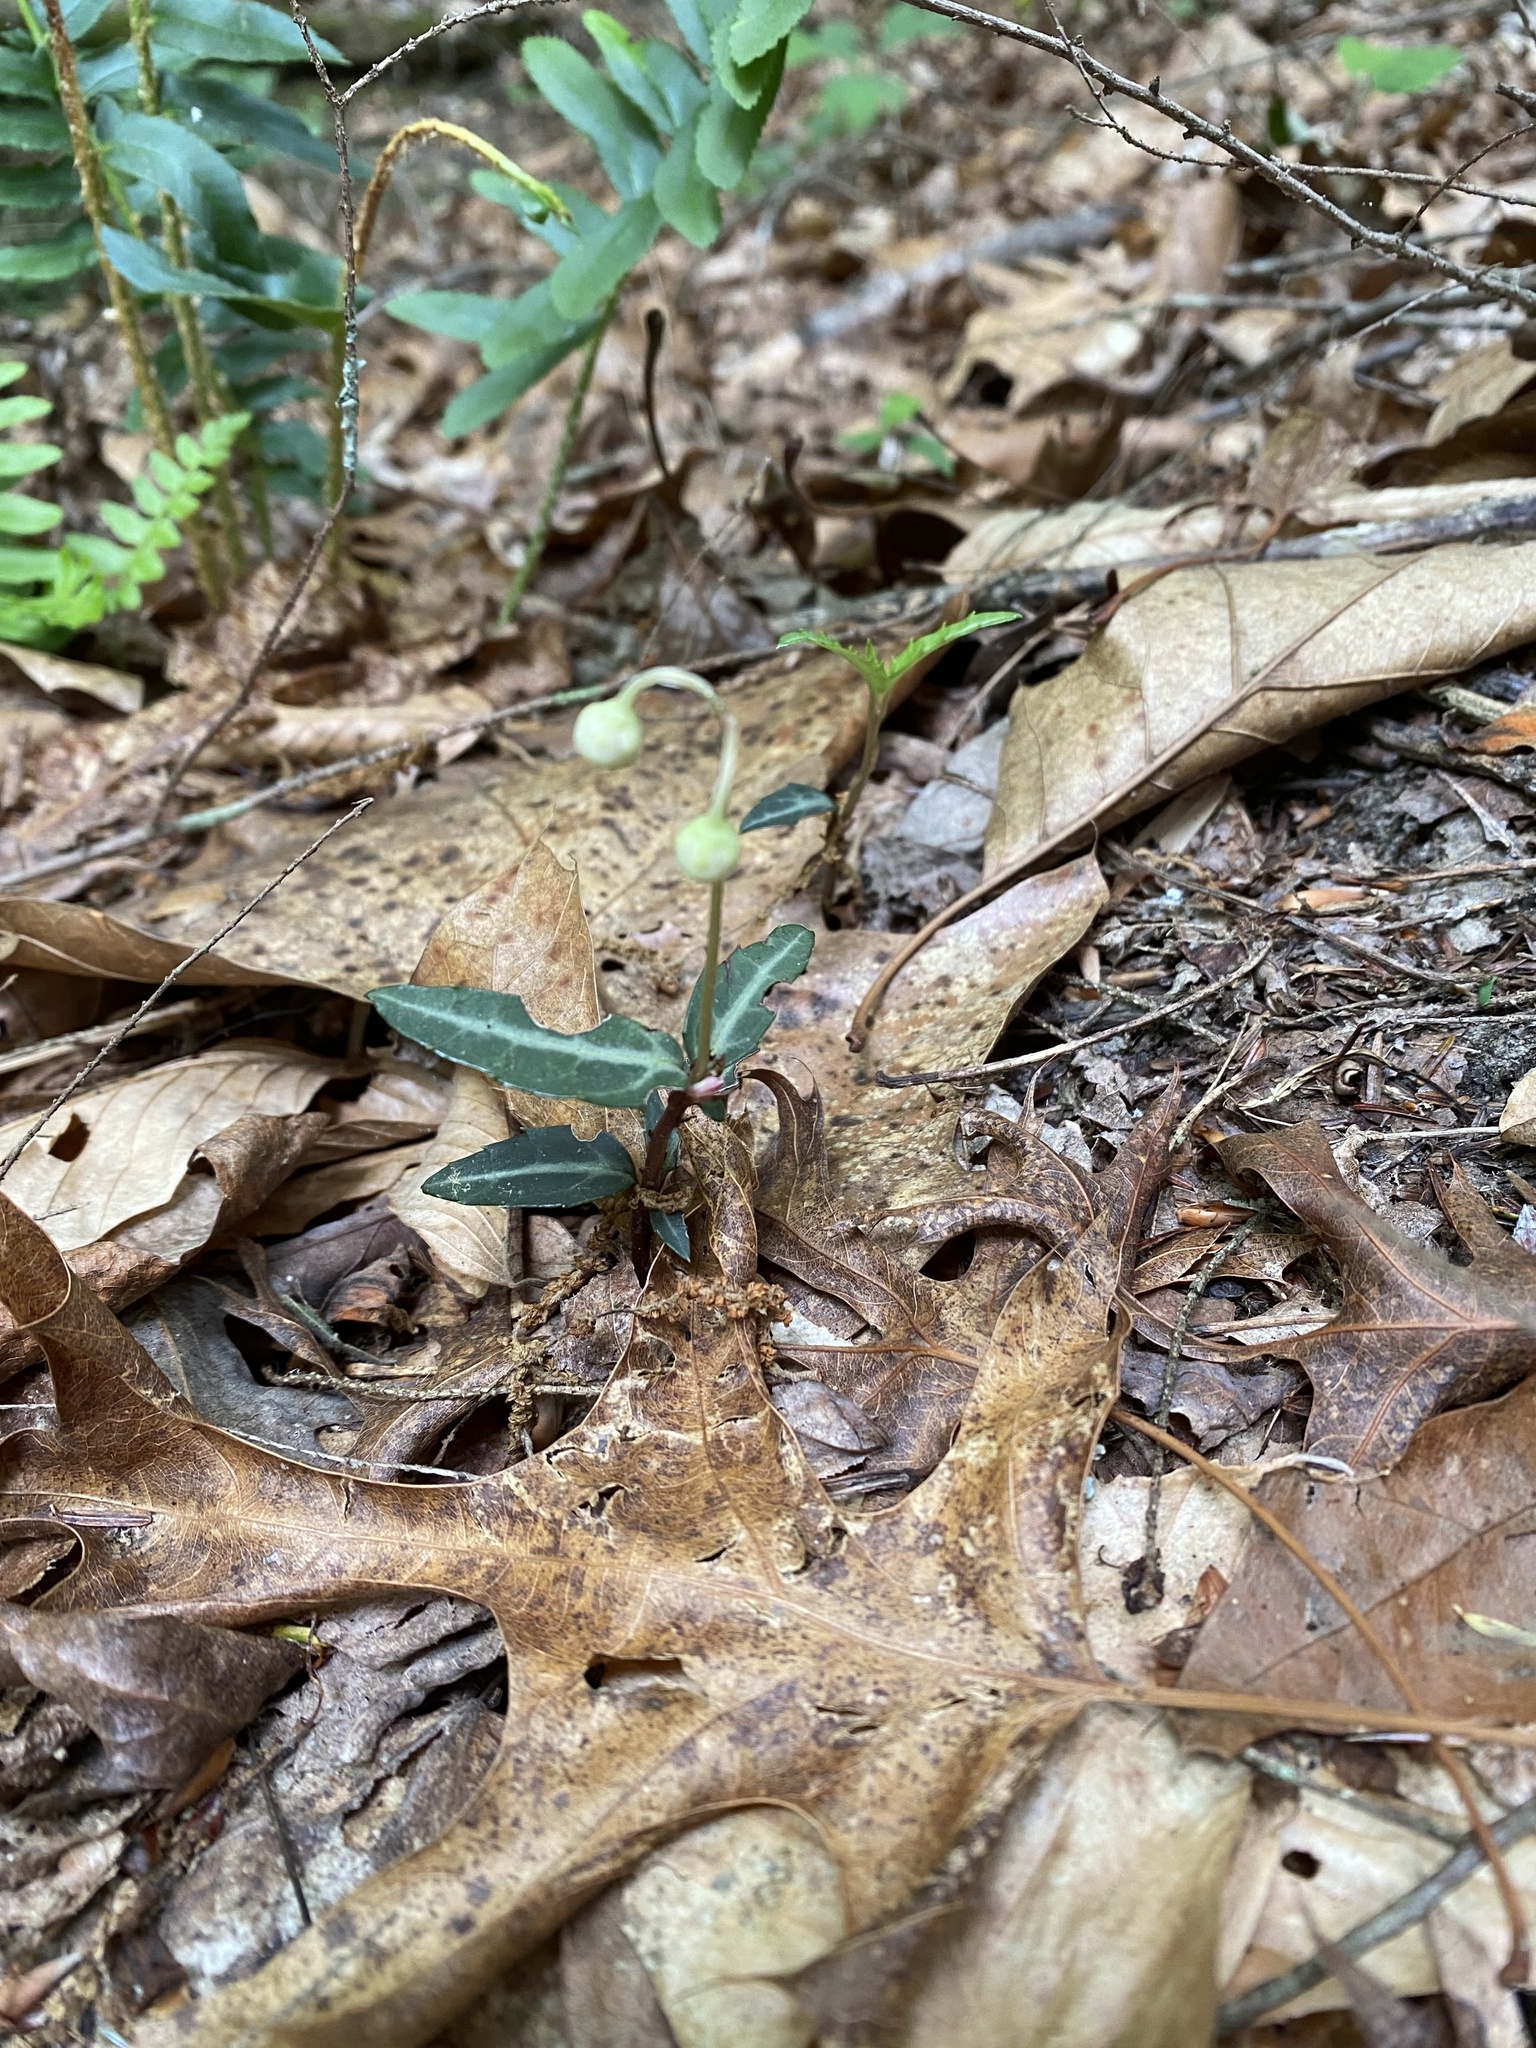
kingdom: Plantae
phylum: Tracheophyta
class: Magnoliopsida
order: Ericales
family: Ericaceae
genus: Chimaphila
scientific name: Chimaphila maculata
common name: Spotted pipsissewa
